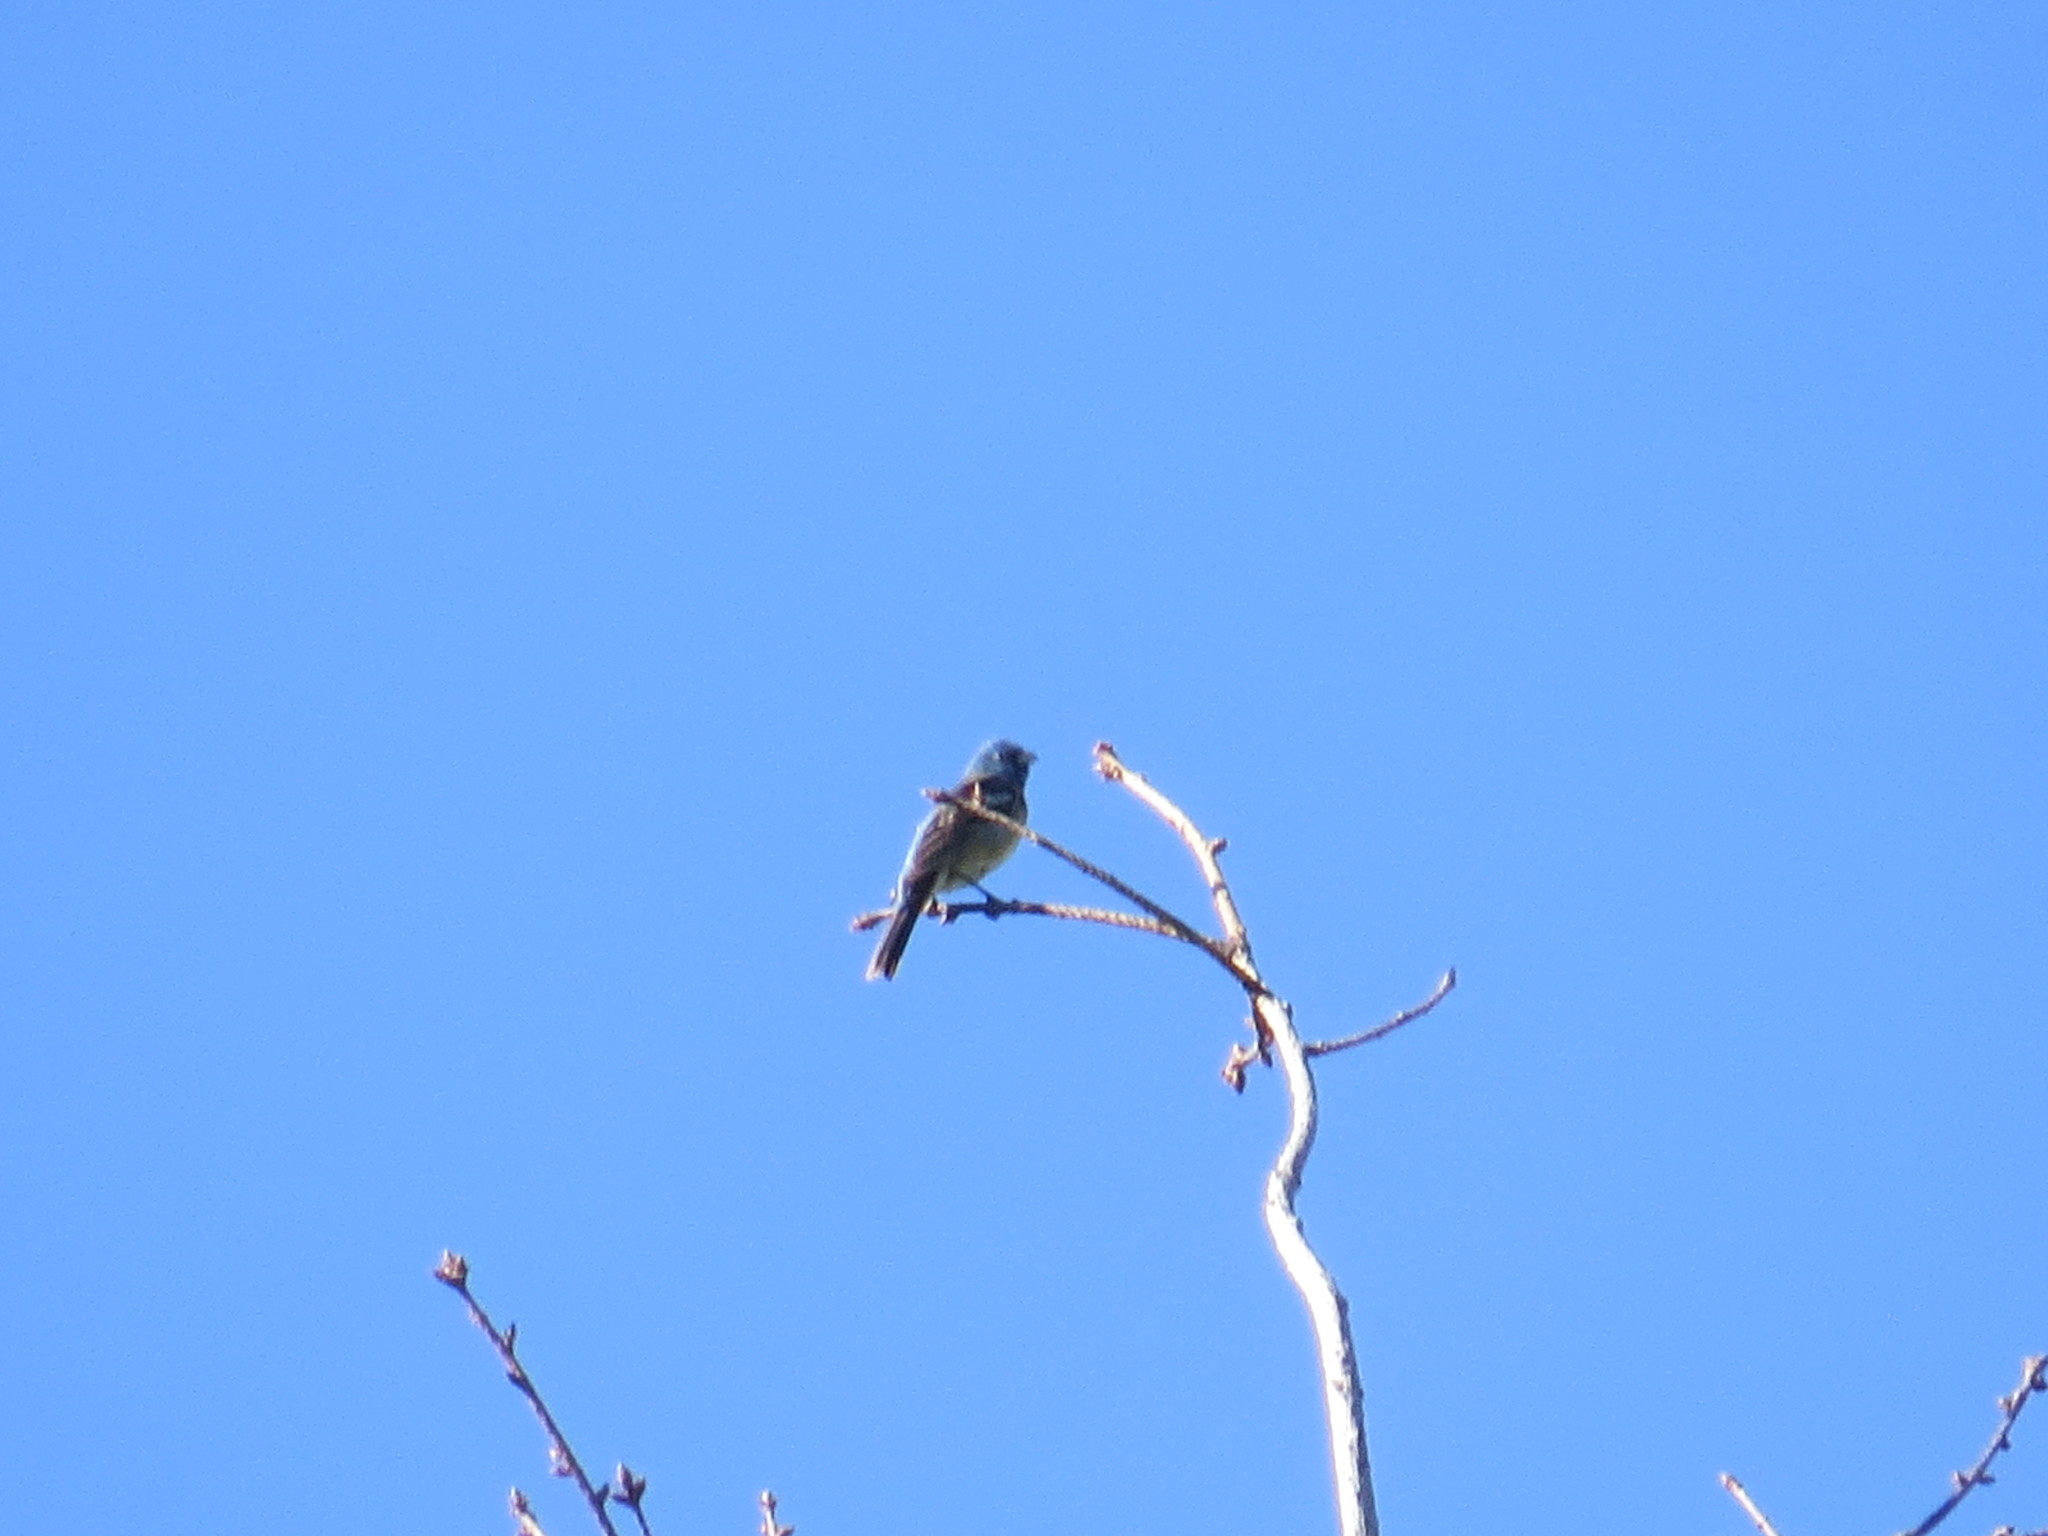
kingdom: Animalia
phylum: Chordata
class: Aves
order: Passeriformes
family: Cardinalidae
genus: Passerina
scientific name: Passerina amoena
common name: Lazuli bunting
